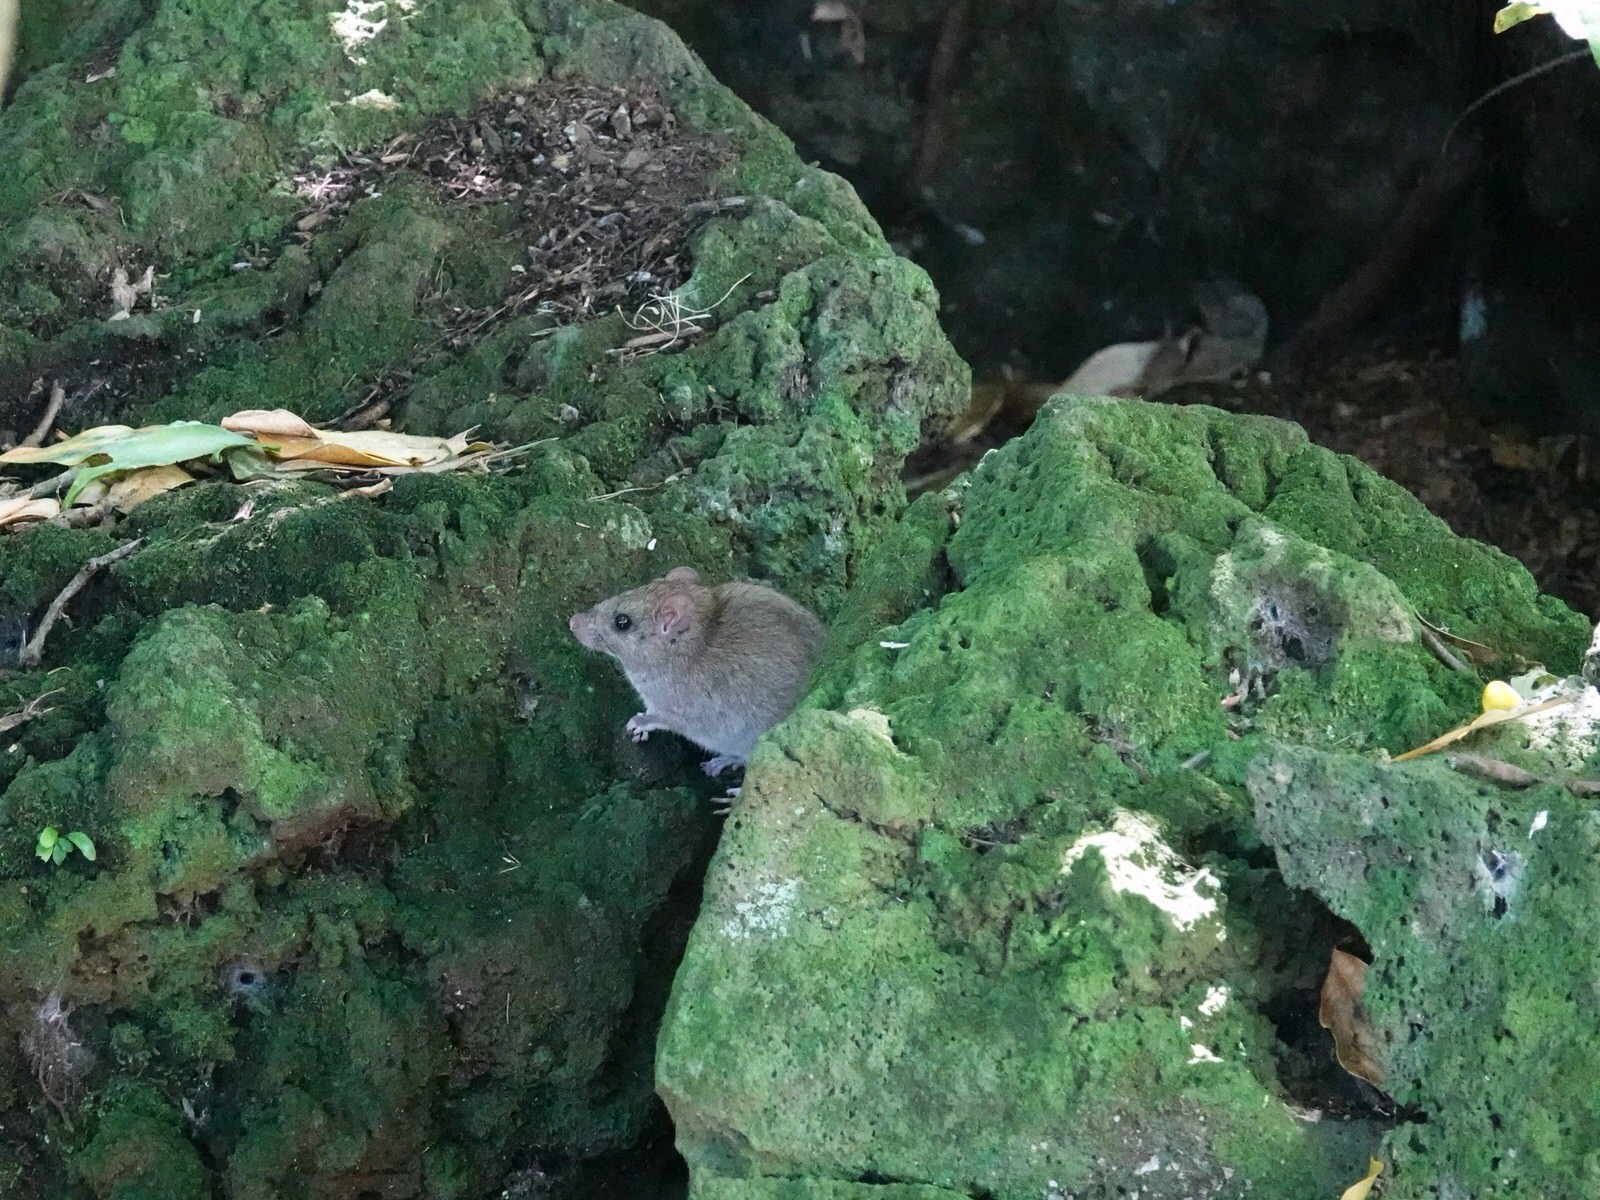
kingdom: Animalia
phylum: Chordata
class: Mammalia
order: Rodentia
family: Muridae
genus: Rattus
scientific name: Rattus rattus
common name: Black rat
